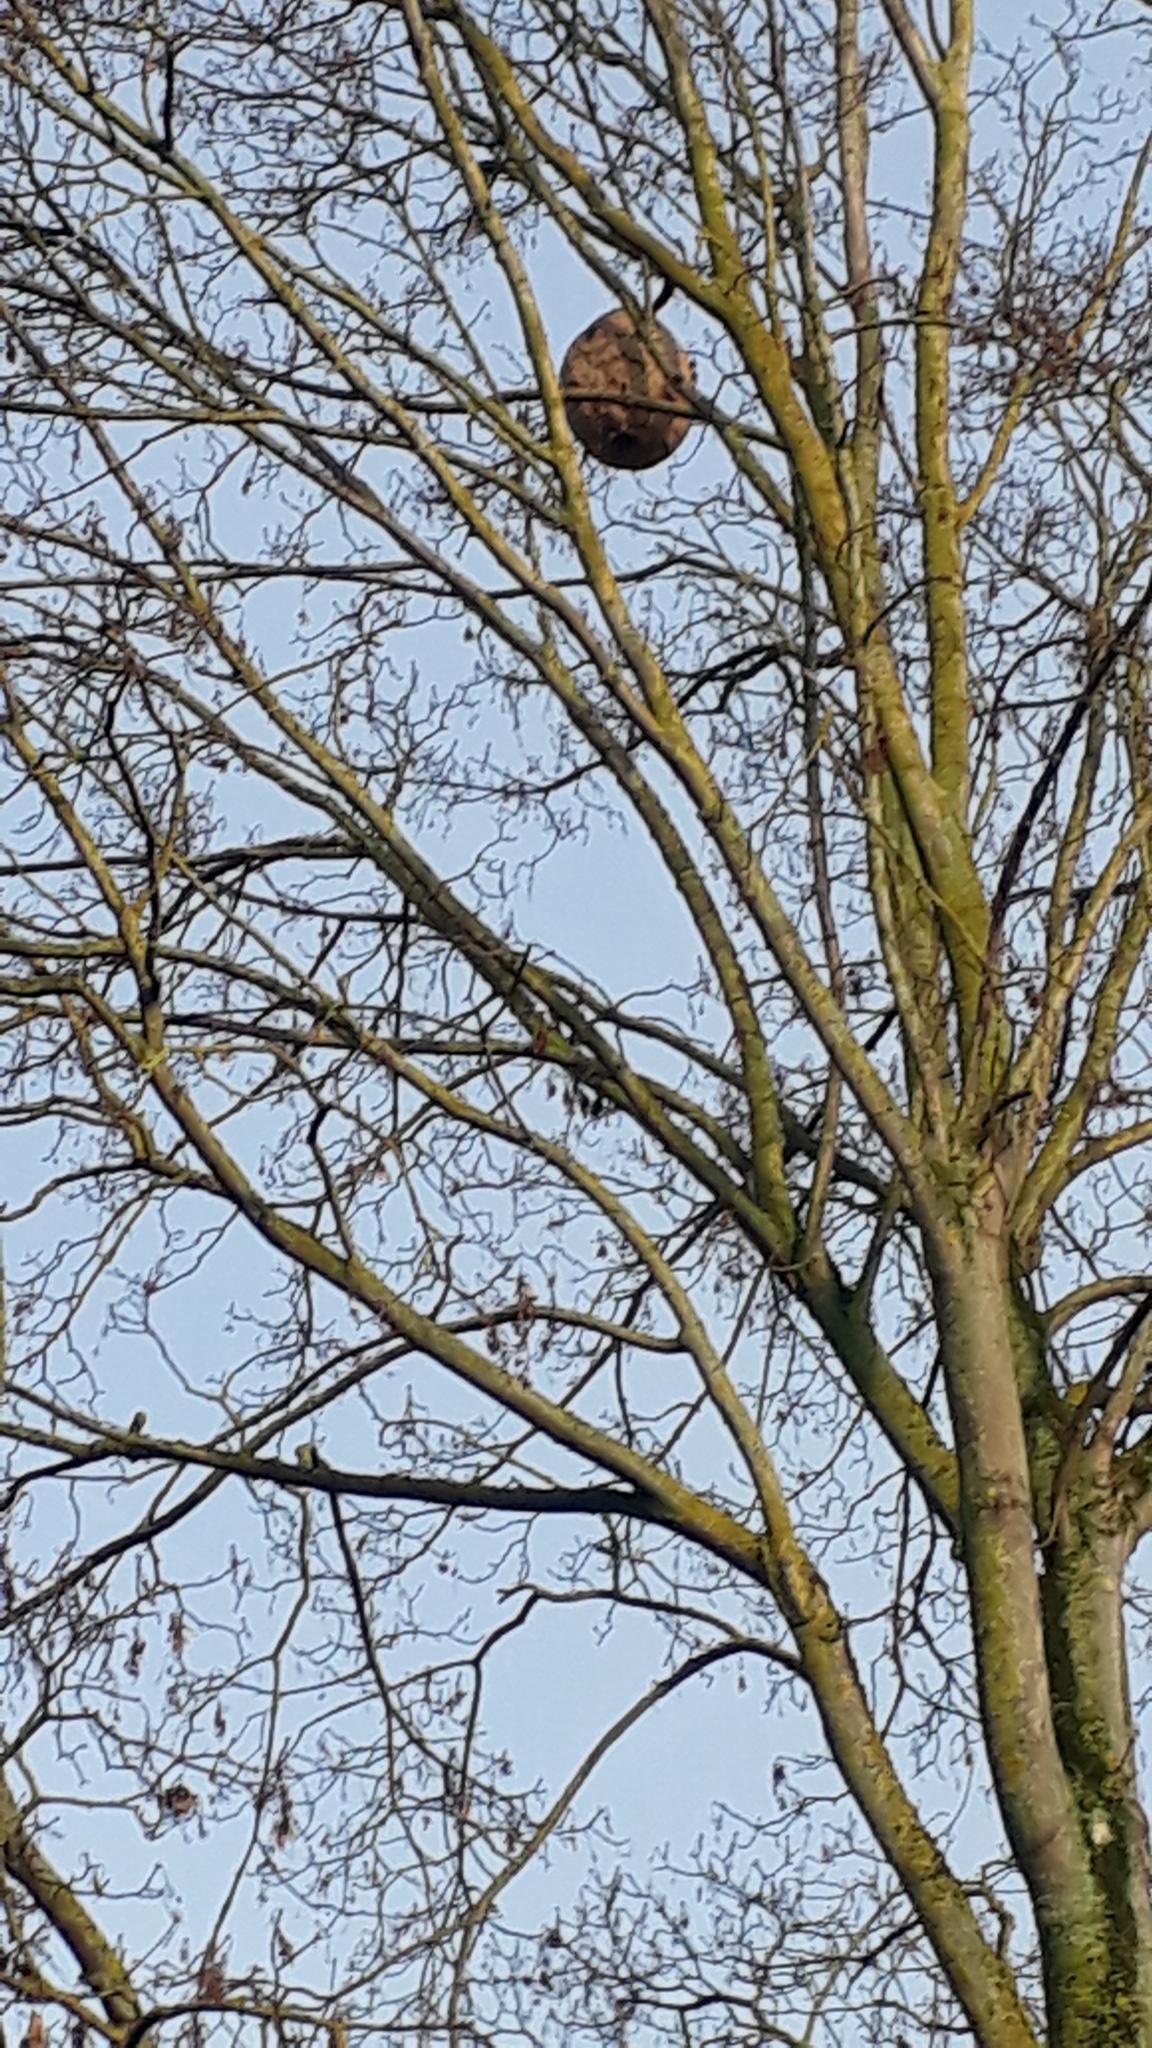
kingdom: Animalia
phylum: Arthropoda
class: Insecta
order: Hymenoptera
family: Vespidae
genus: Vespa
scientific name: Vespa velutina
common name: Asian hornet
